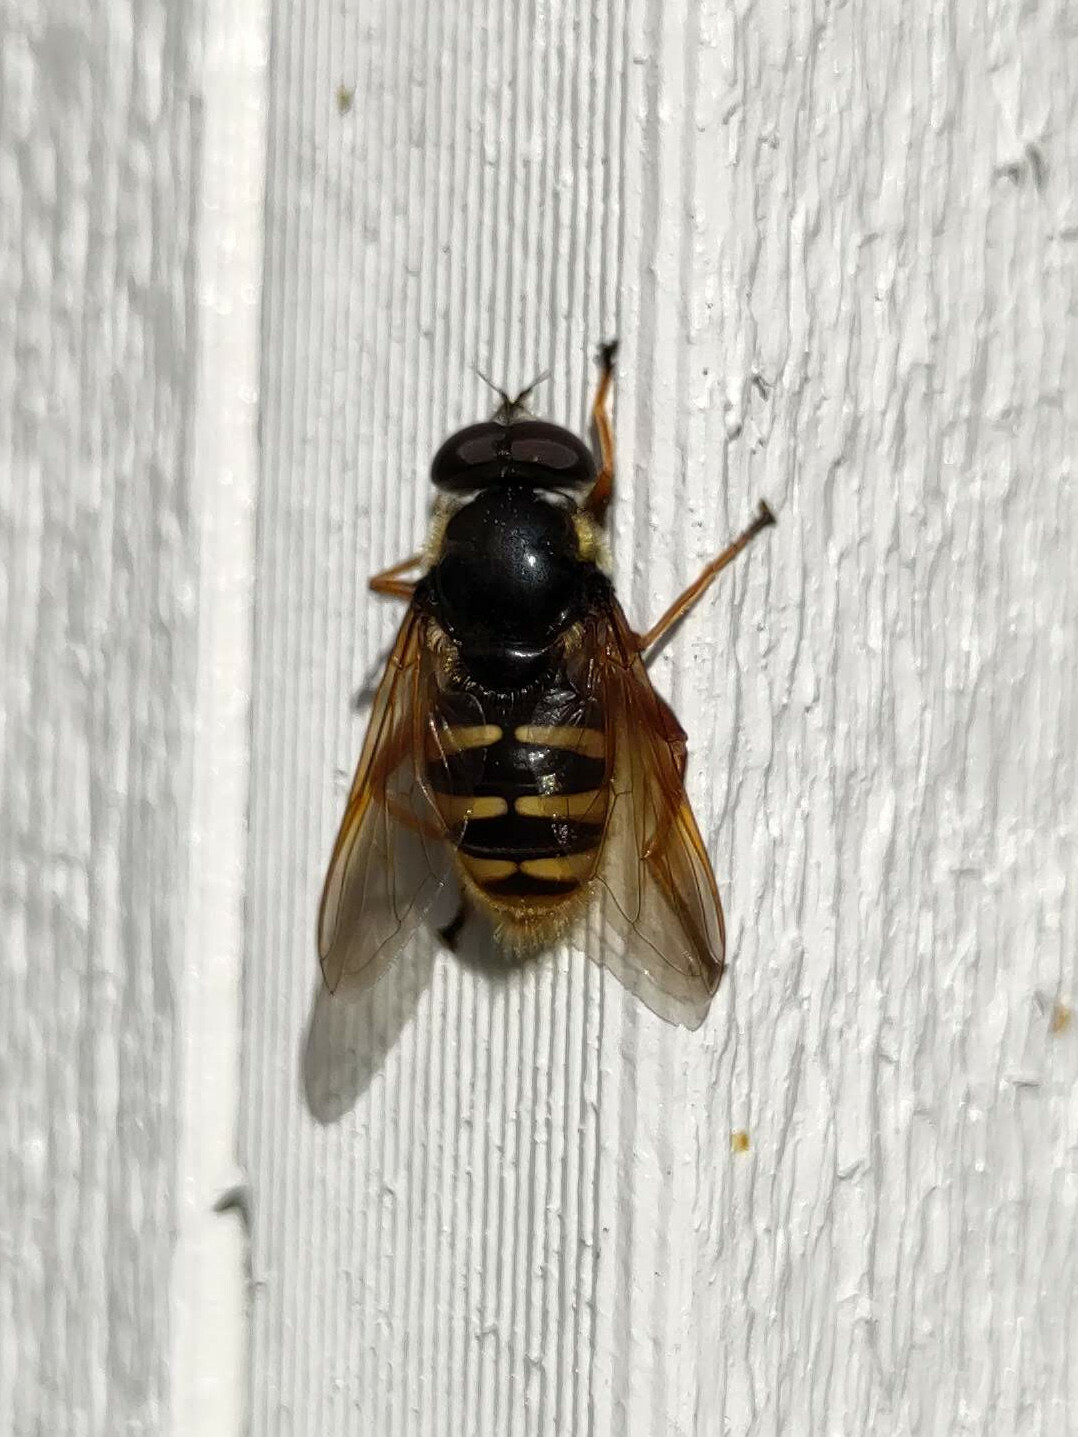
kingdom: Animalia
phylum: Arthropoda
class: Insecta
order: Diptera
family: Syrphidae
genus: Sericomyia
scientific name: Sericomyia silentis
